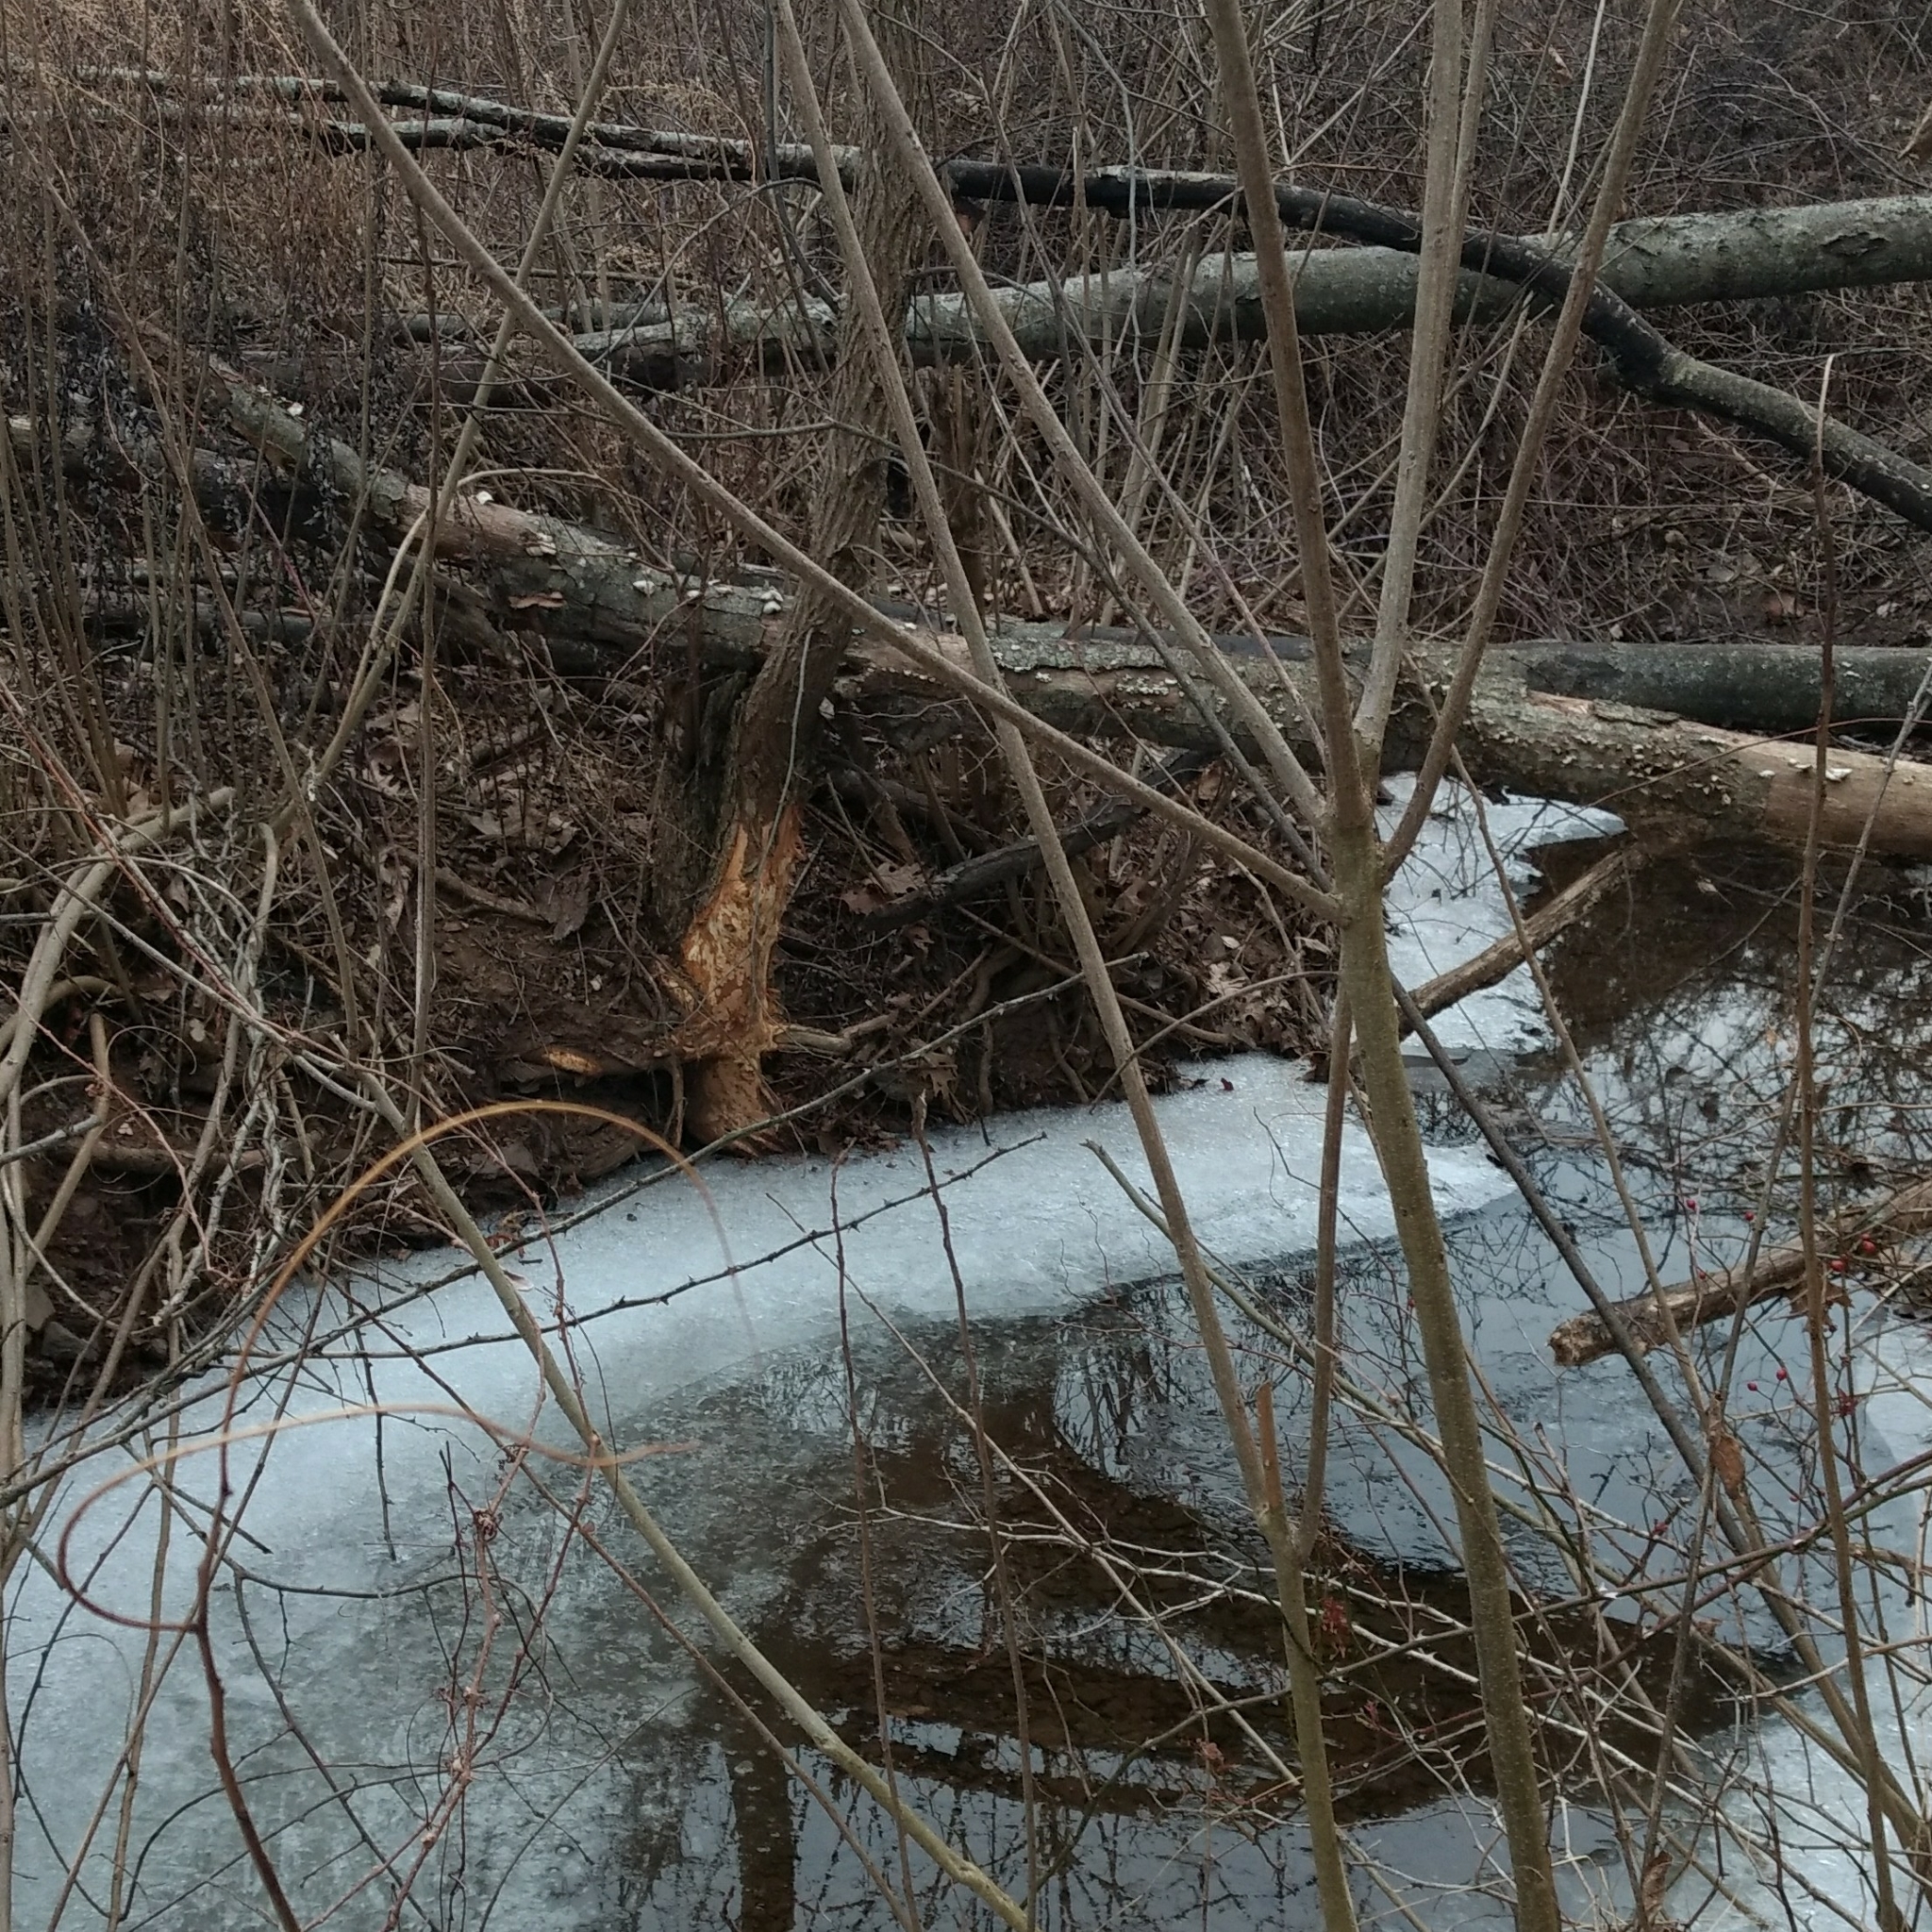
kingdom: Animalia
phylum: Chordata
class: Mammalia
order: Rodentia
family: Castoridae
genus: Castor
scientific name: Castor canadensis
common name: American beaver
